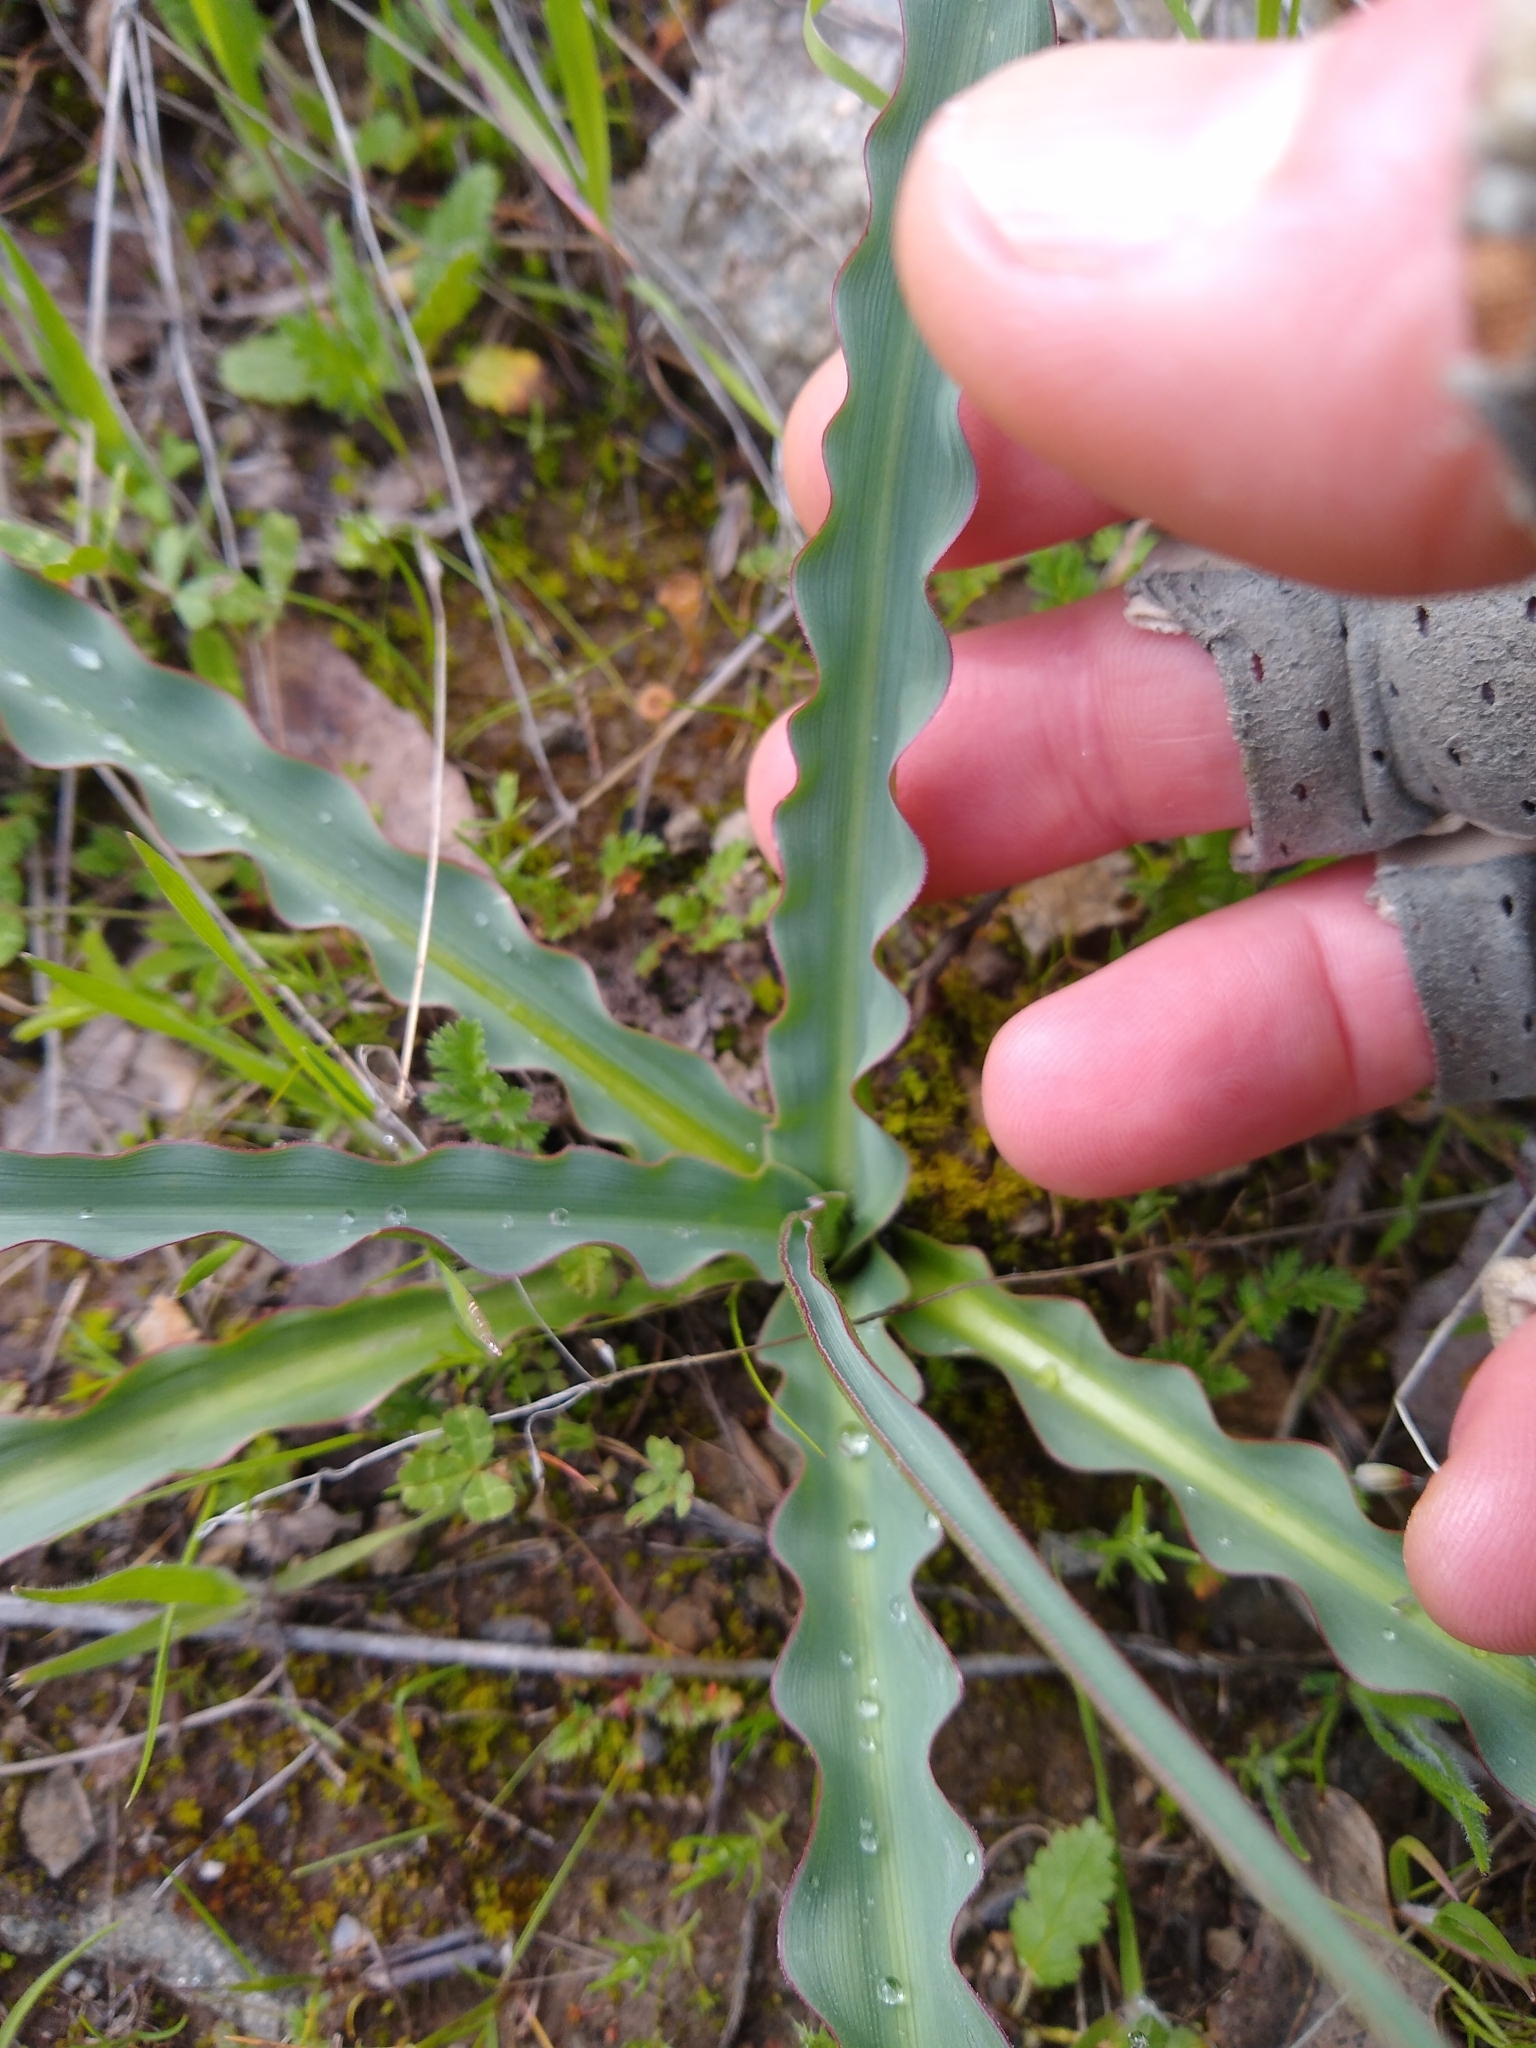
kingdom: Plantae
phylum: Tracheophyta
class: Liliopsida
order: Asparagales
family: Asparagaceae
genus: Chlorogalum
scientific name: Chlorogalum pomeridianum
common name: Amole
